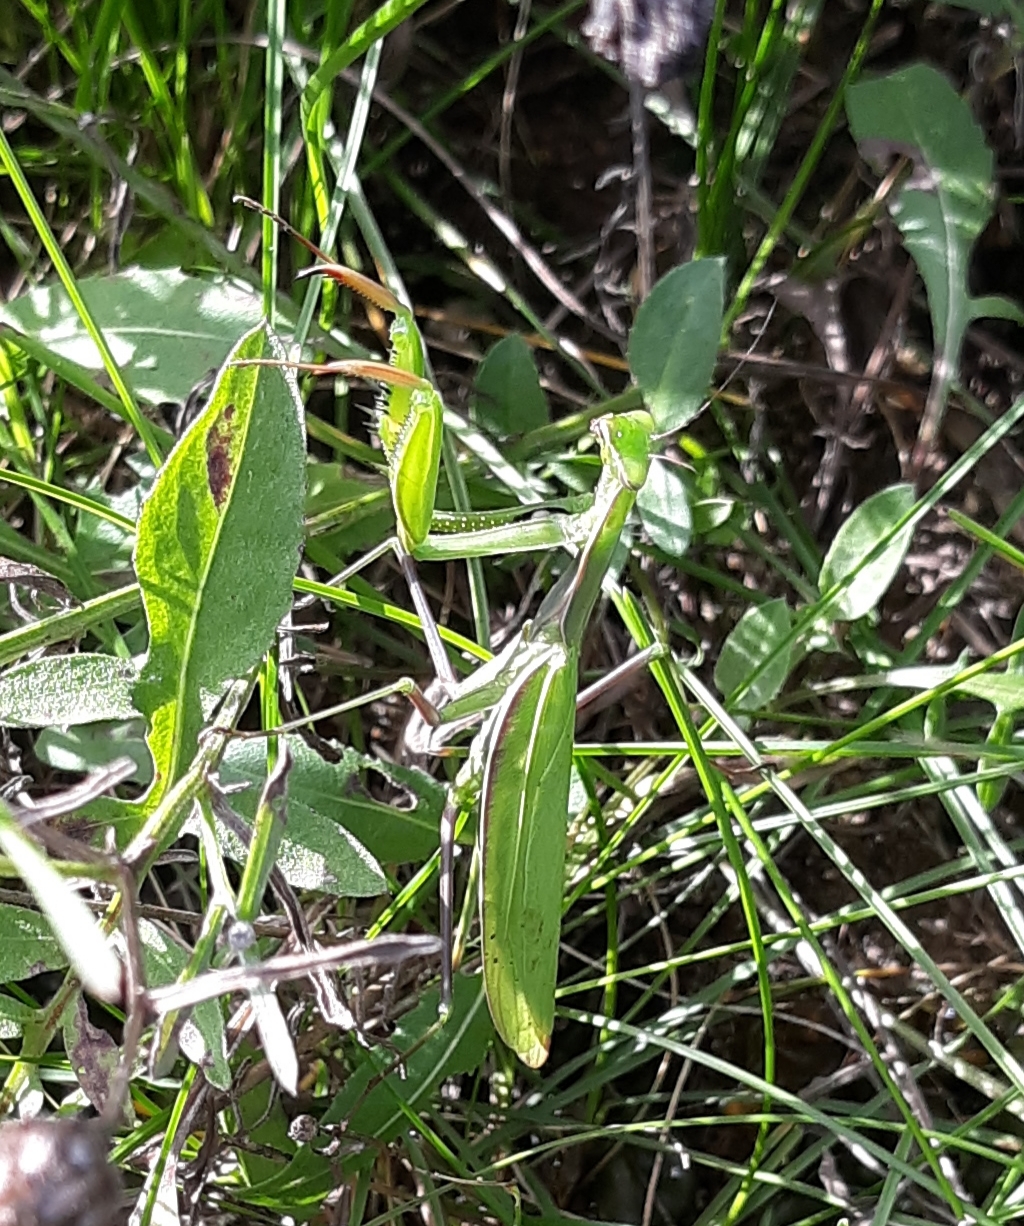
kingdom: Animalia
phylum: Arthropoda
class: Insecta
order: Mantodea
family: Mantidae
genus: Mantis
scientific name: Mantis religiosa
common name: Praying mantis
